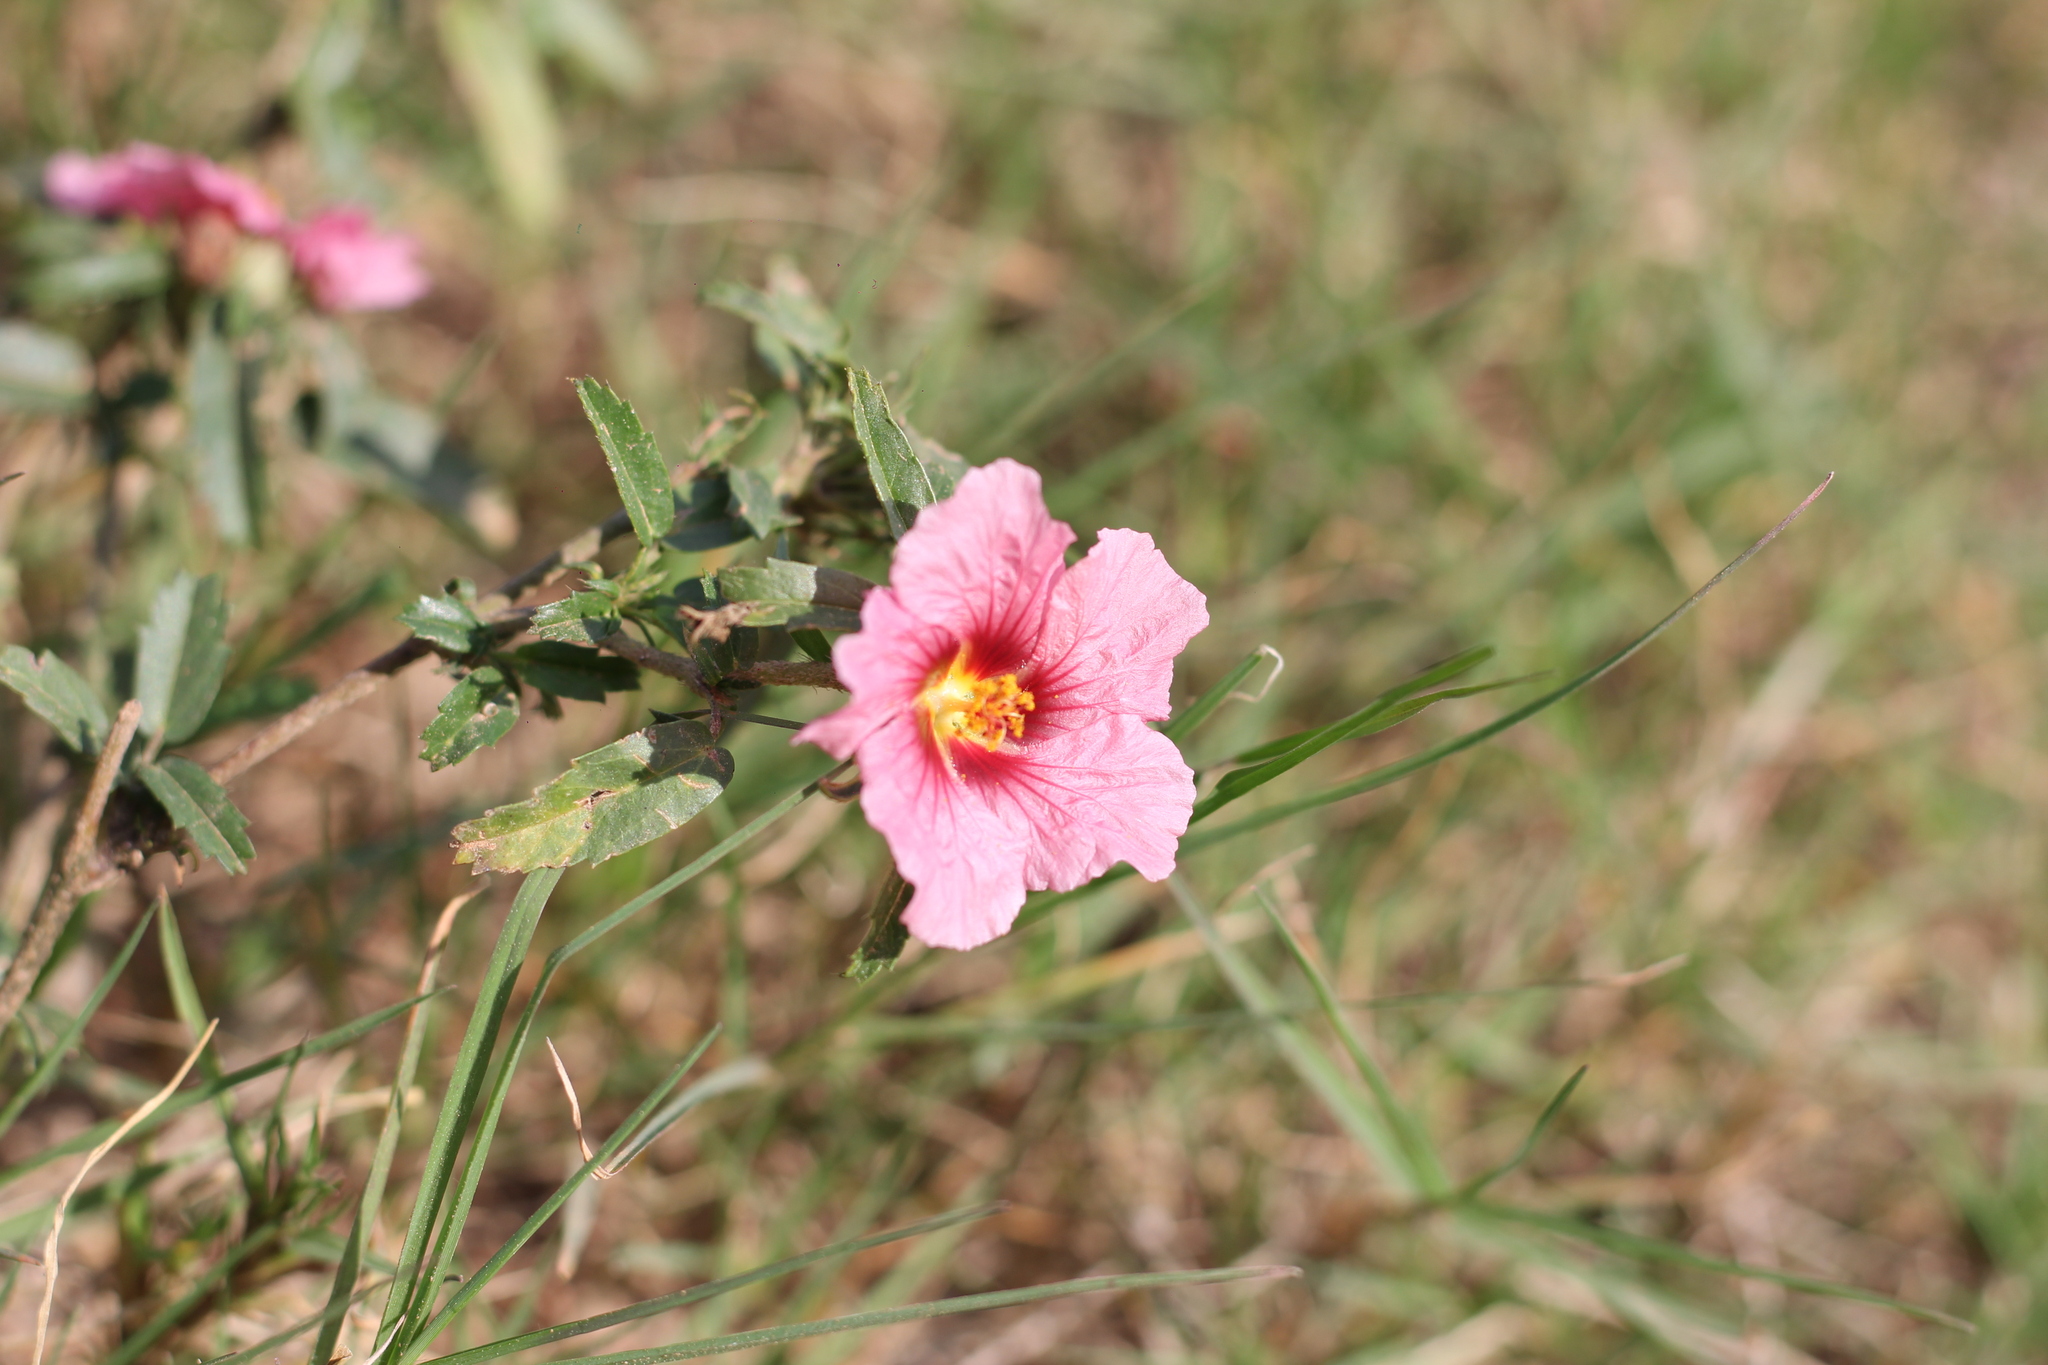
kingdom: Plantae
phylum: Tracheophyta
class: Magnoliopsida
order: Malvales
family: Malvaceae
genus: Sida
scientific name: Sida anomala
